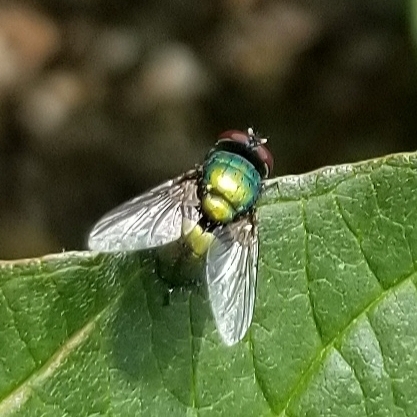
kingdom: Animalia
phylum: Arthropoda
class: Insecta
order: Diptera
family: Calliphoridae
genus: Lucilia
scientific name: Lucilia sericata
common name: Blow fly
